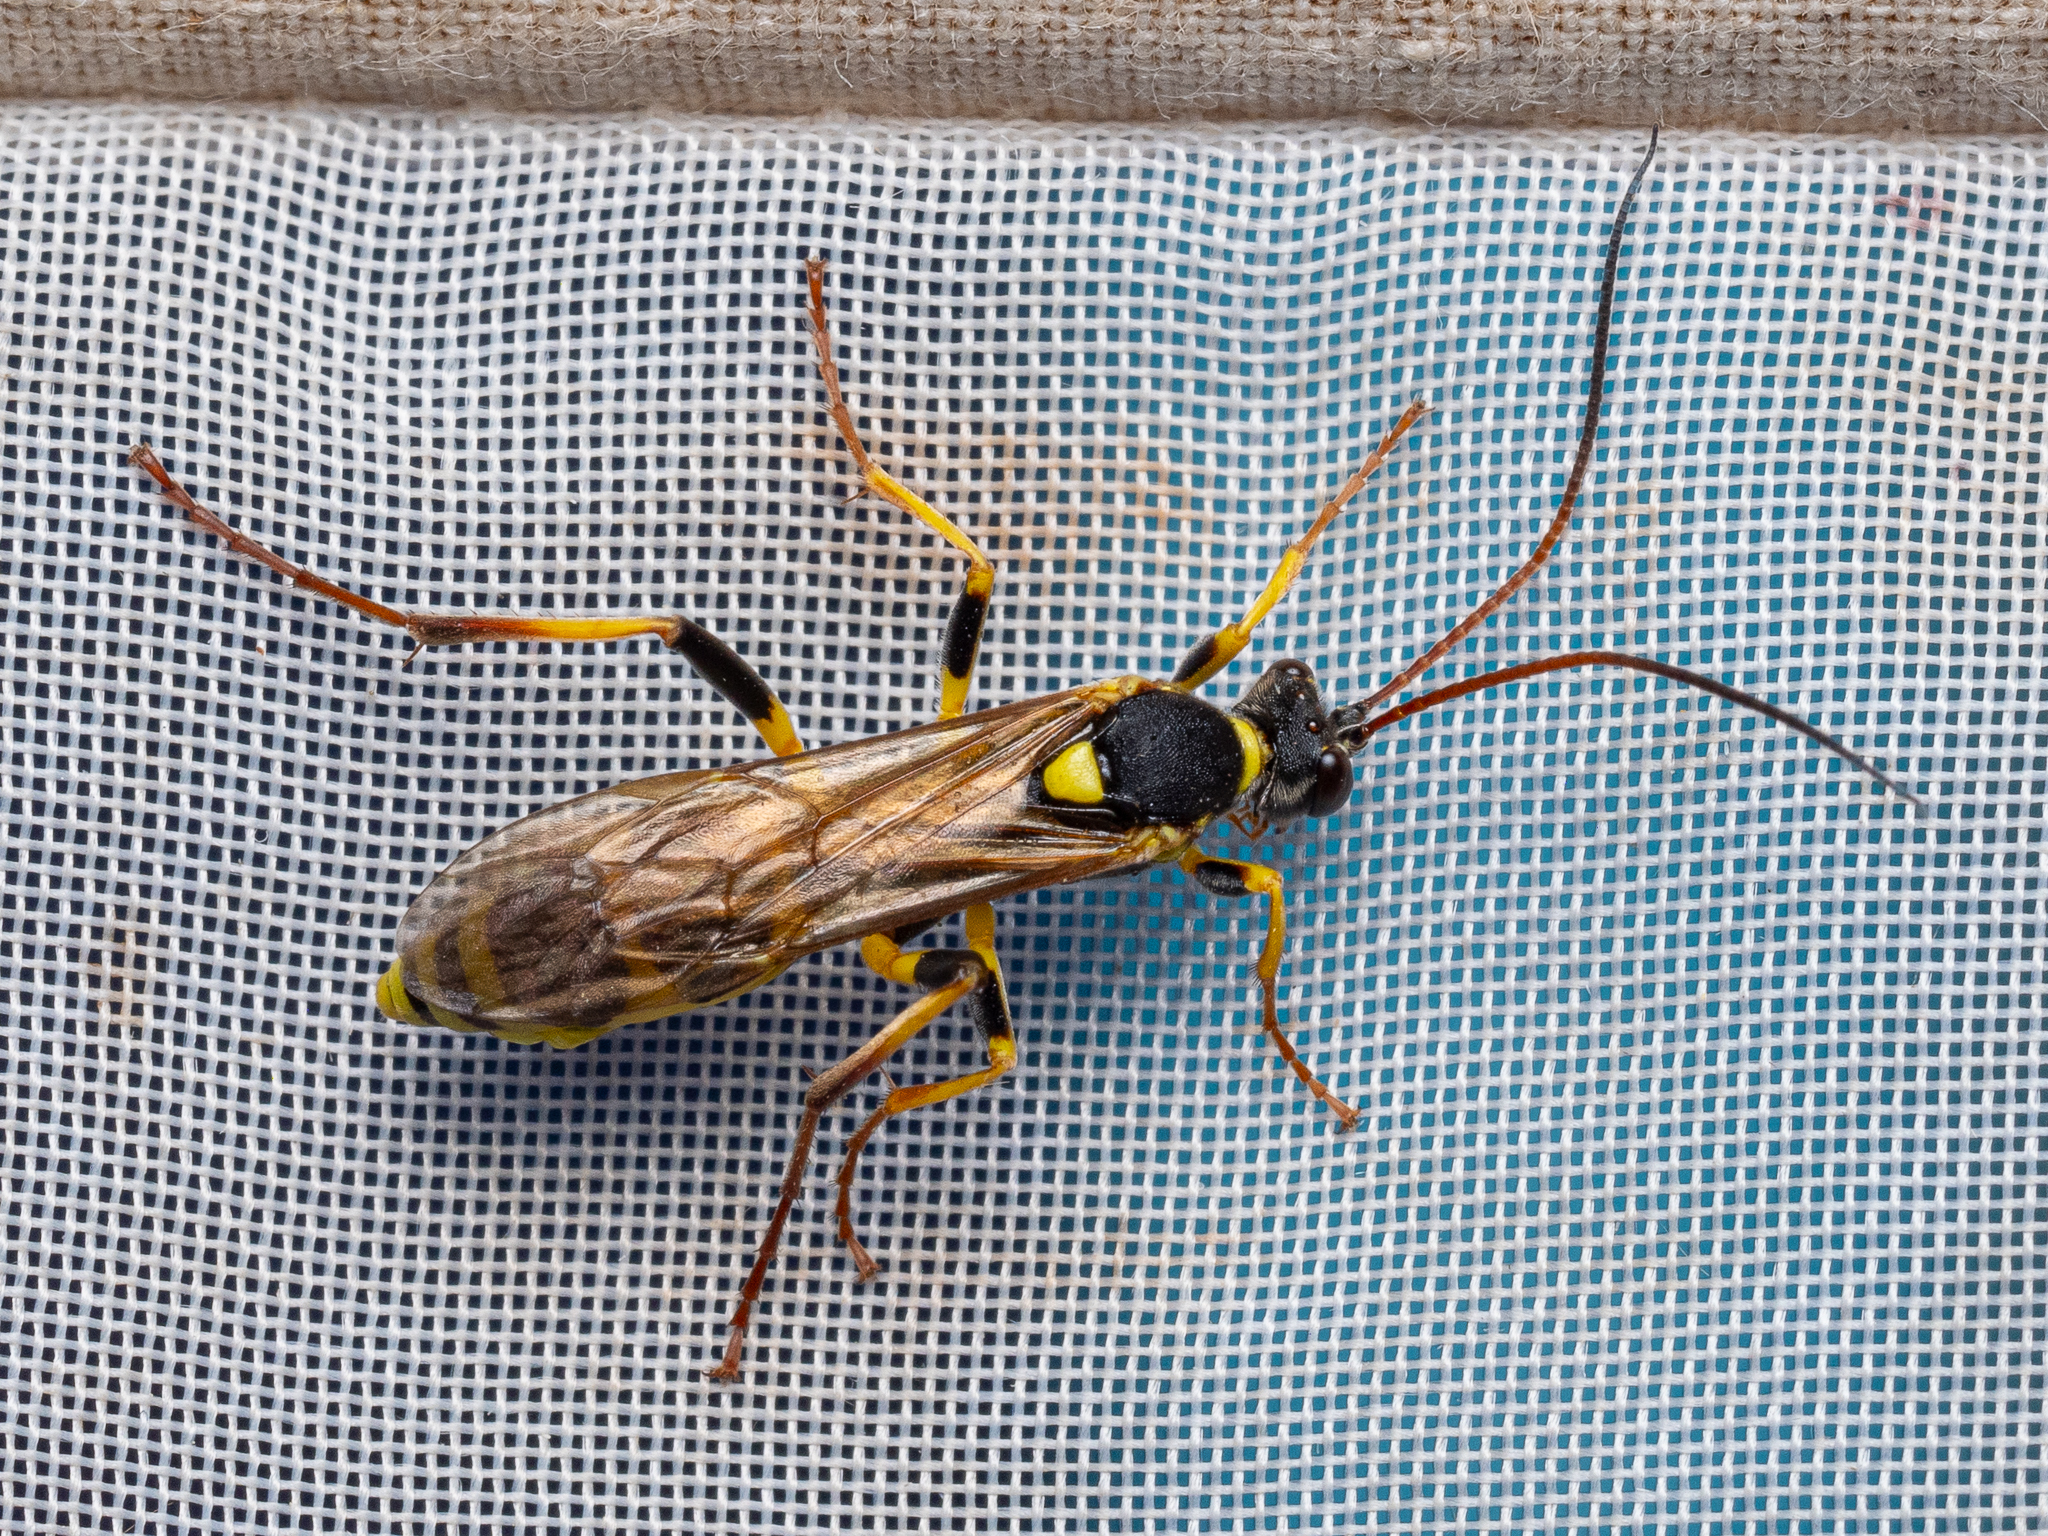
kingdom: Animalia
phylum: Arthropoda
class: Insecta
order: Hymenoptera
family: Ichneumonidae
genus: Amblyteles
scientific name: Amblyteles armatorius
